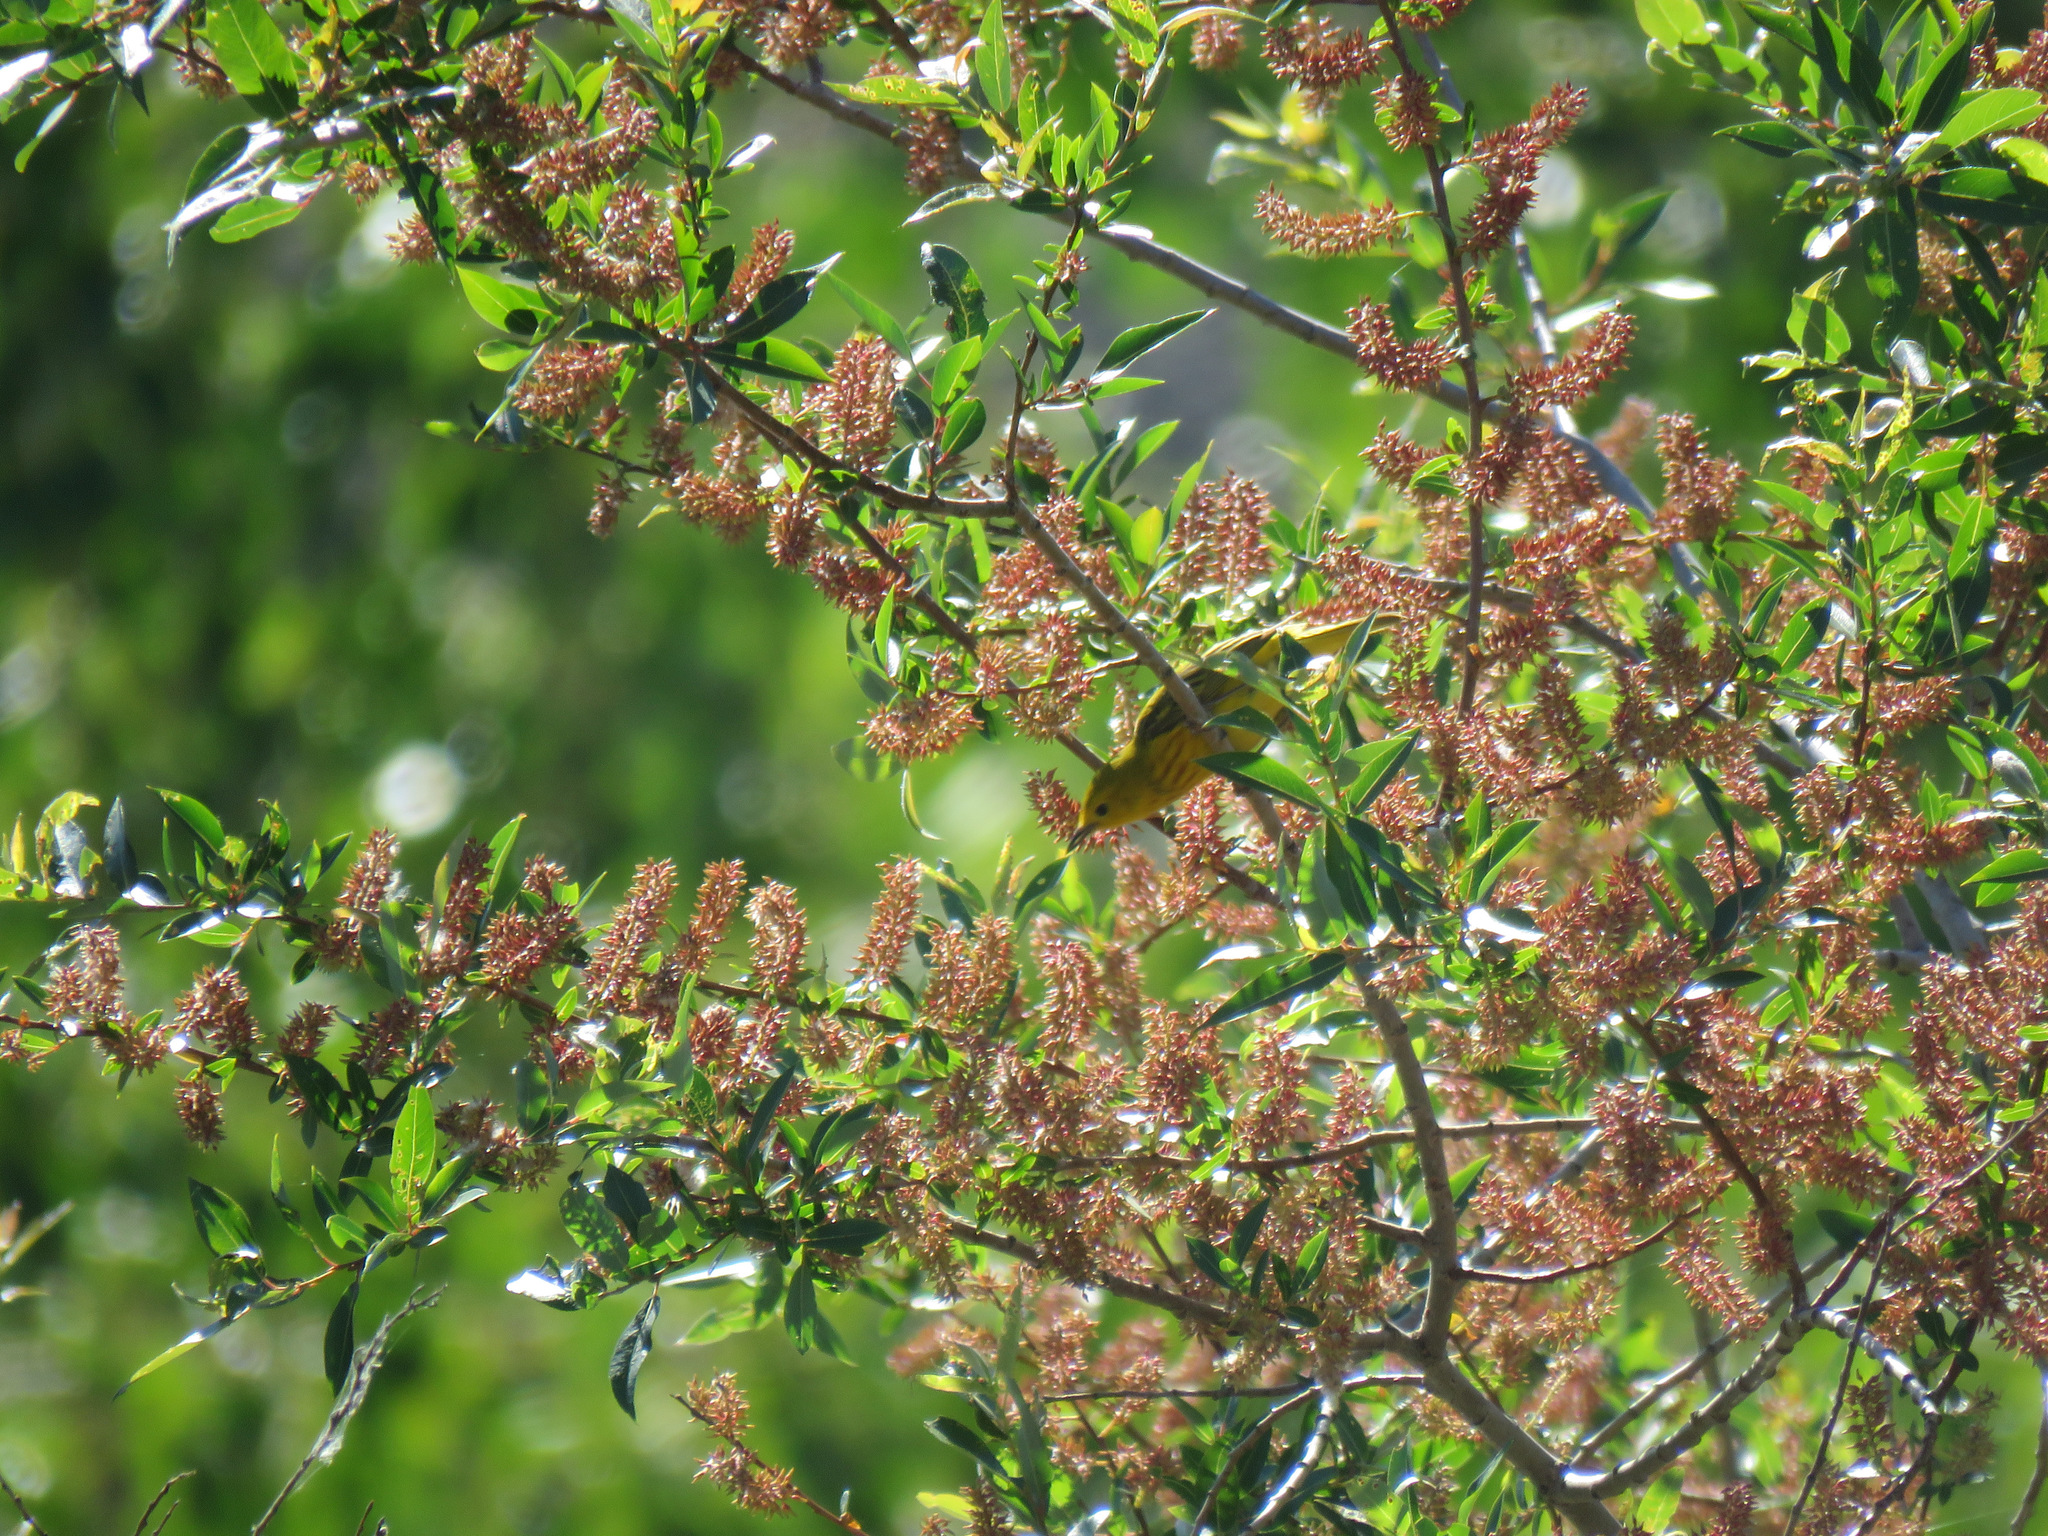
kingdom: Animalia
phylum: Chordata
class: Aves
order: Passeriformes
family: Parulidae
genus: Setophaga
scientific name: Setophaga petechia
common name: Yellow warbler
